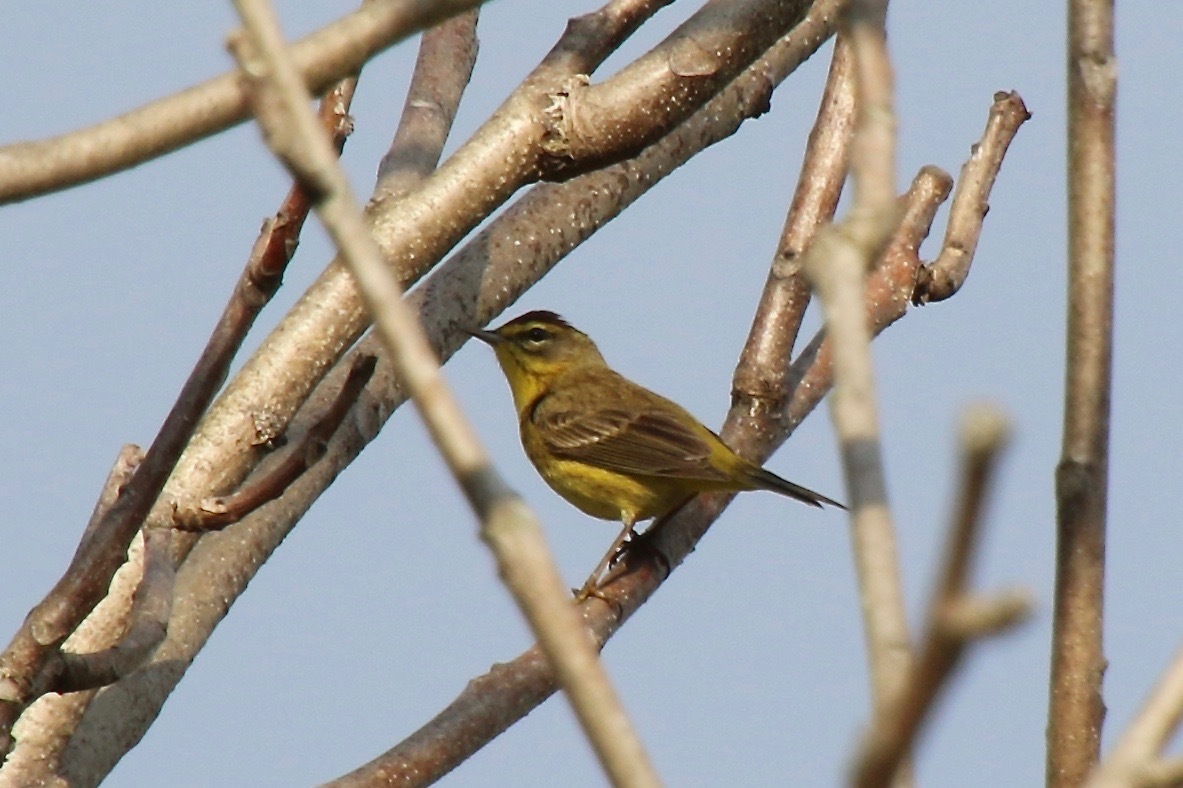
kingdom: Animalia
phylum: Chordata
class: Aves
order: Passeriformes
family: Parulidae
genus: Setophaga
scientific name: Setophaga palmarum
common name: Palm warbler
